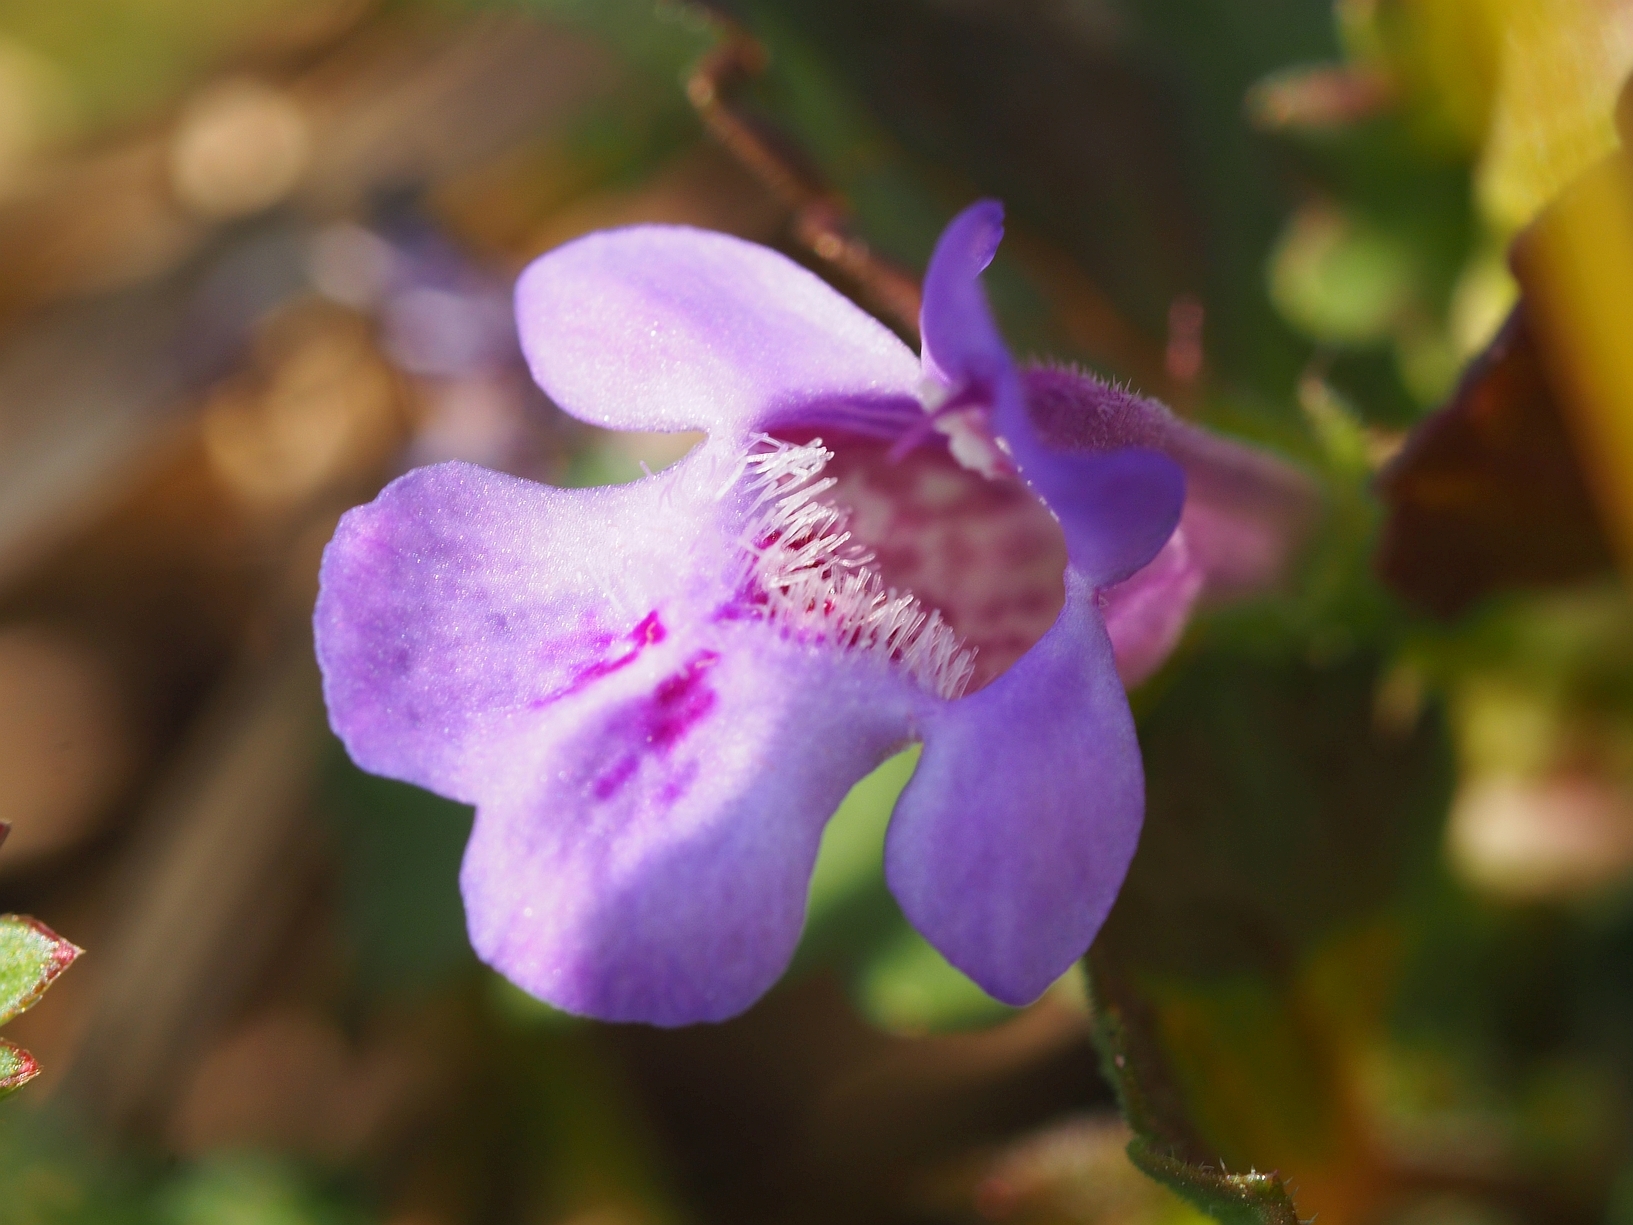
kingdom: Plantae
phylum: Tracheophyta
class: Magnoliopsida
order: Lamiales
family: Lamiaceae
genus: Glechoma
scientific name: Glechoma hederacea
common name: Ground ivy
